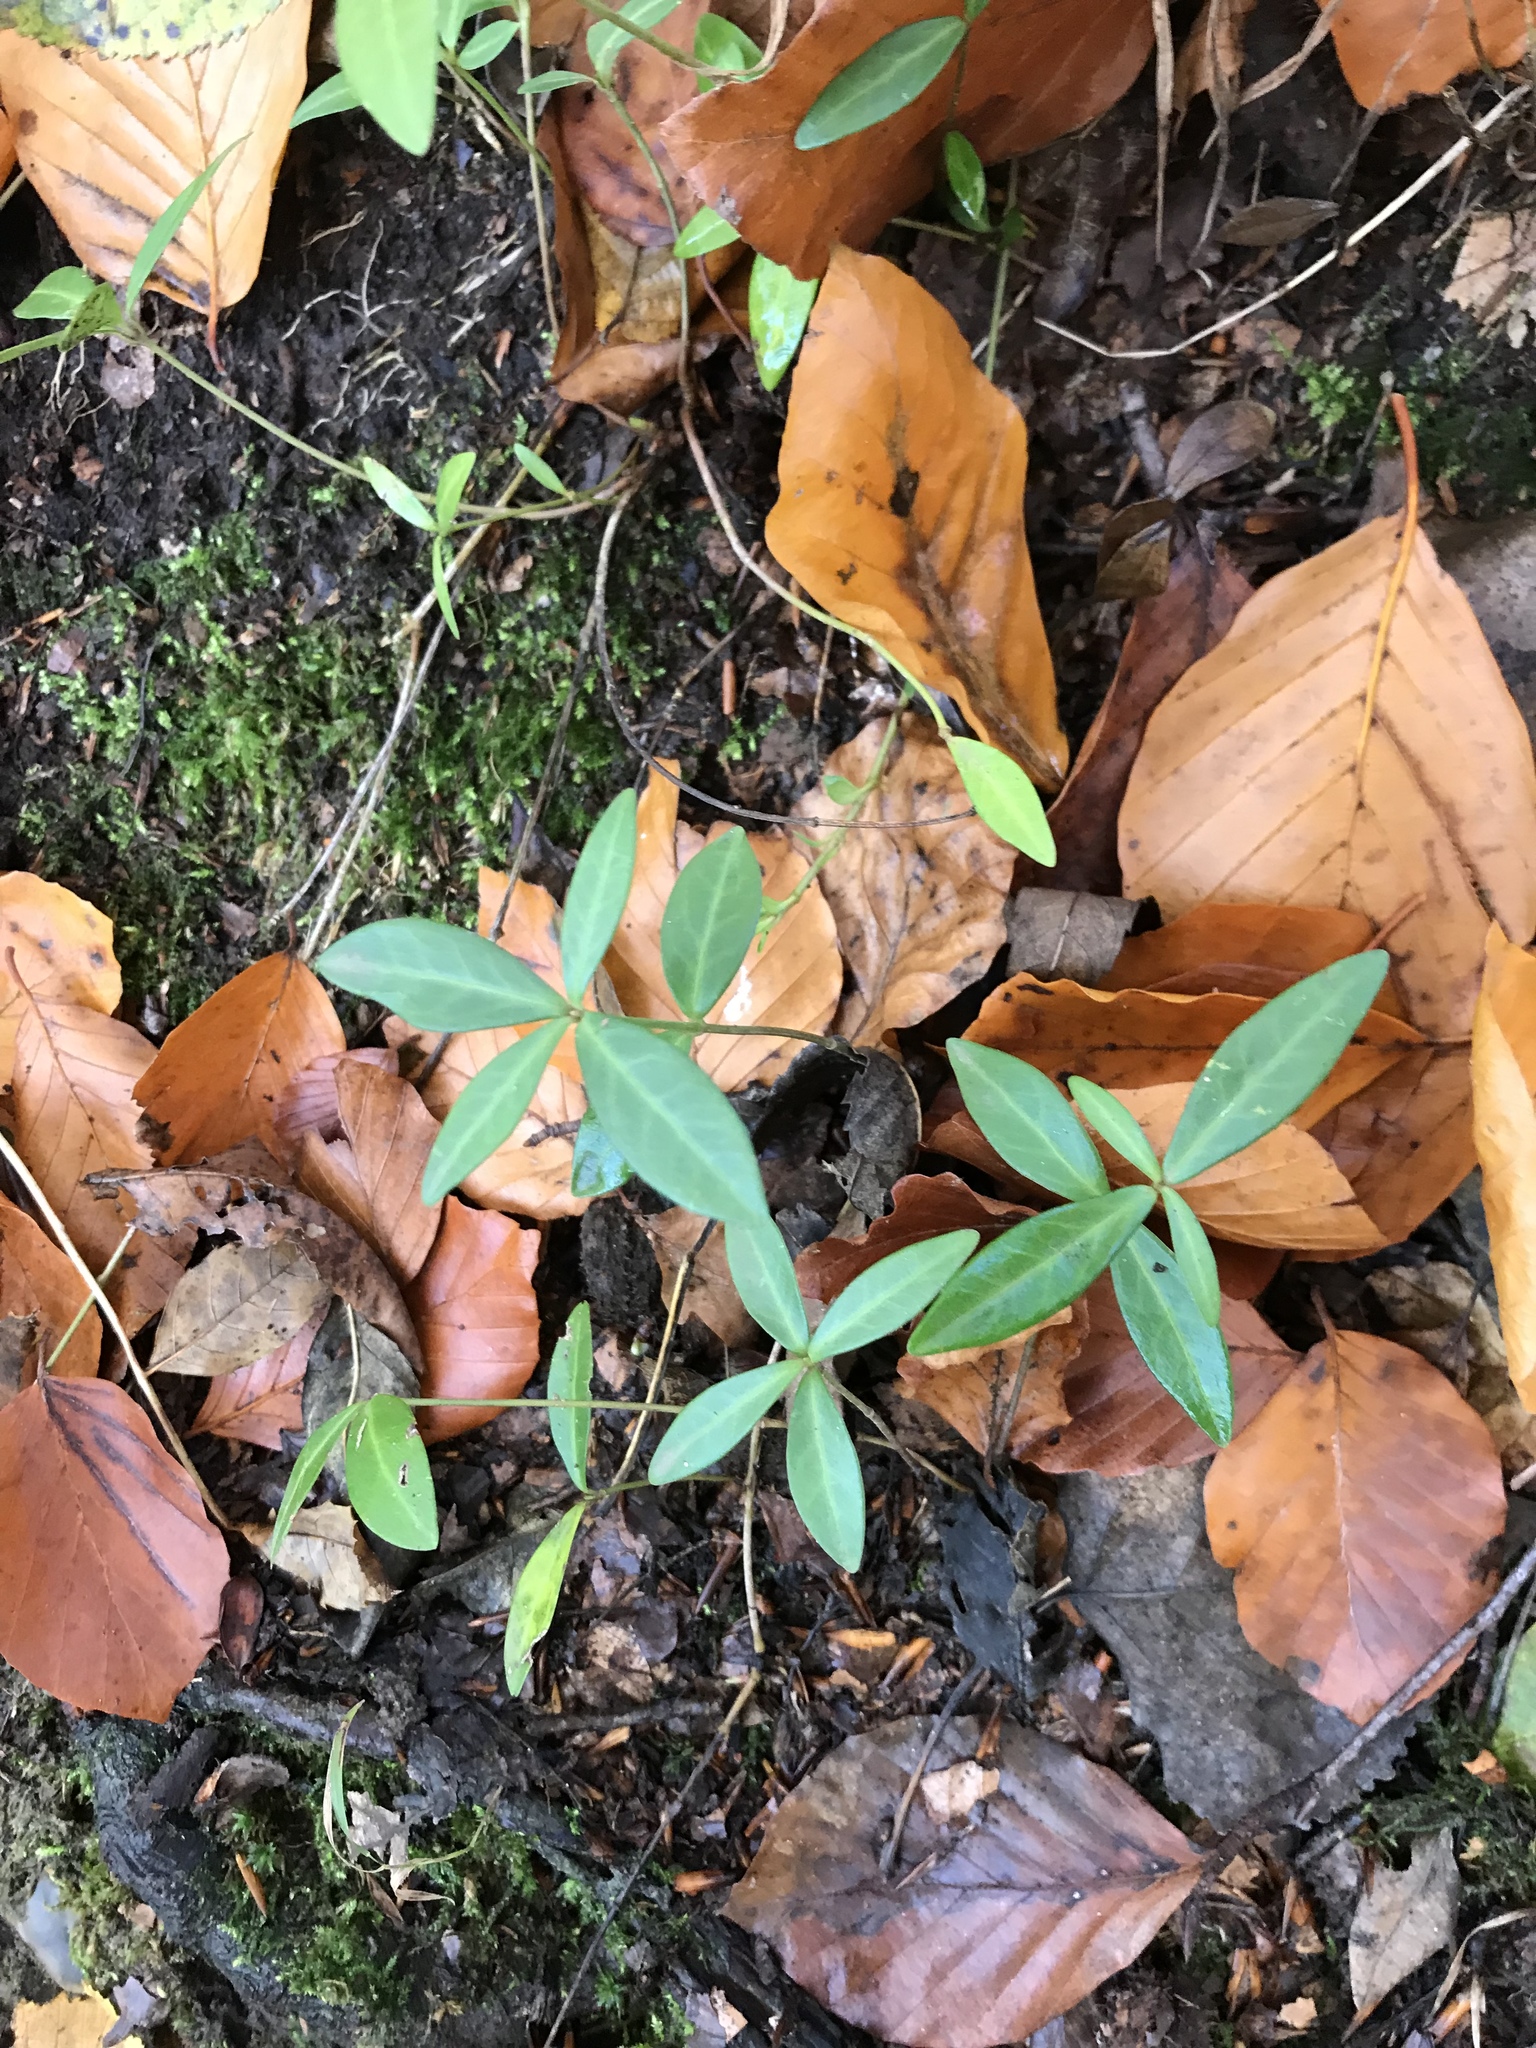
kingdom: Plantae
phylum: Tracheophyta
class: Magnoliopsida
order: Gentianales
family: Apocynaceae
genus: Vinca
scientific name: Vinca minor
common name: Lesser periwinkle
